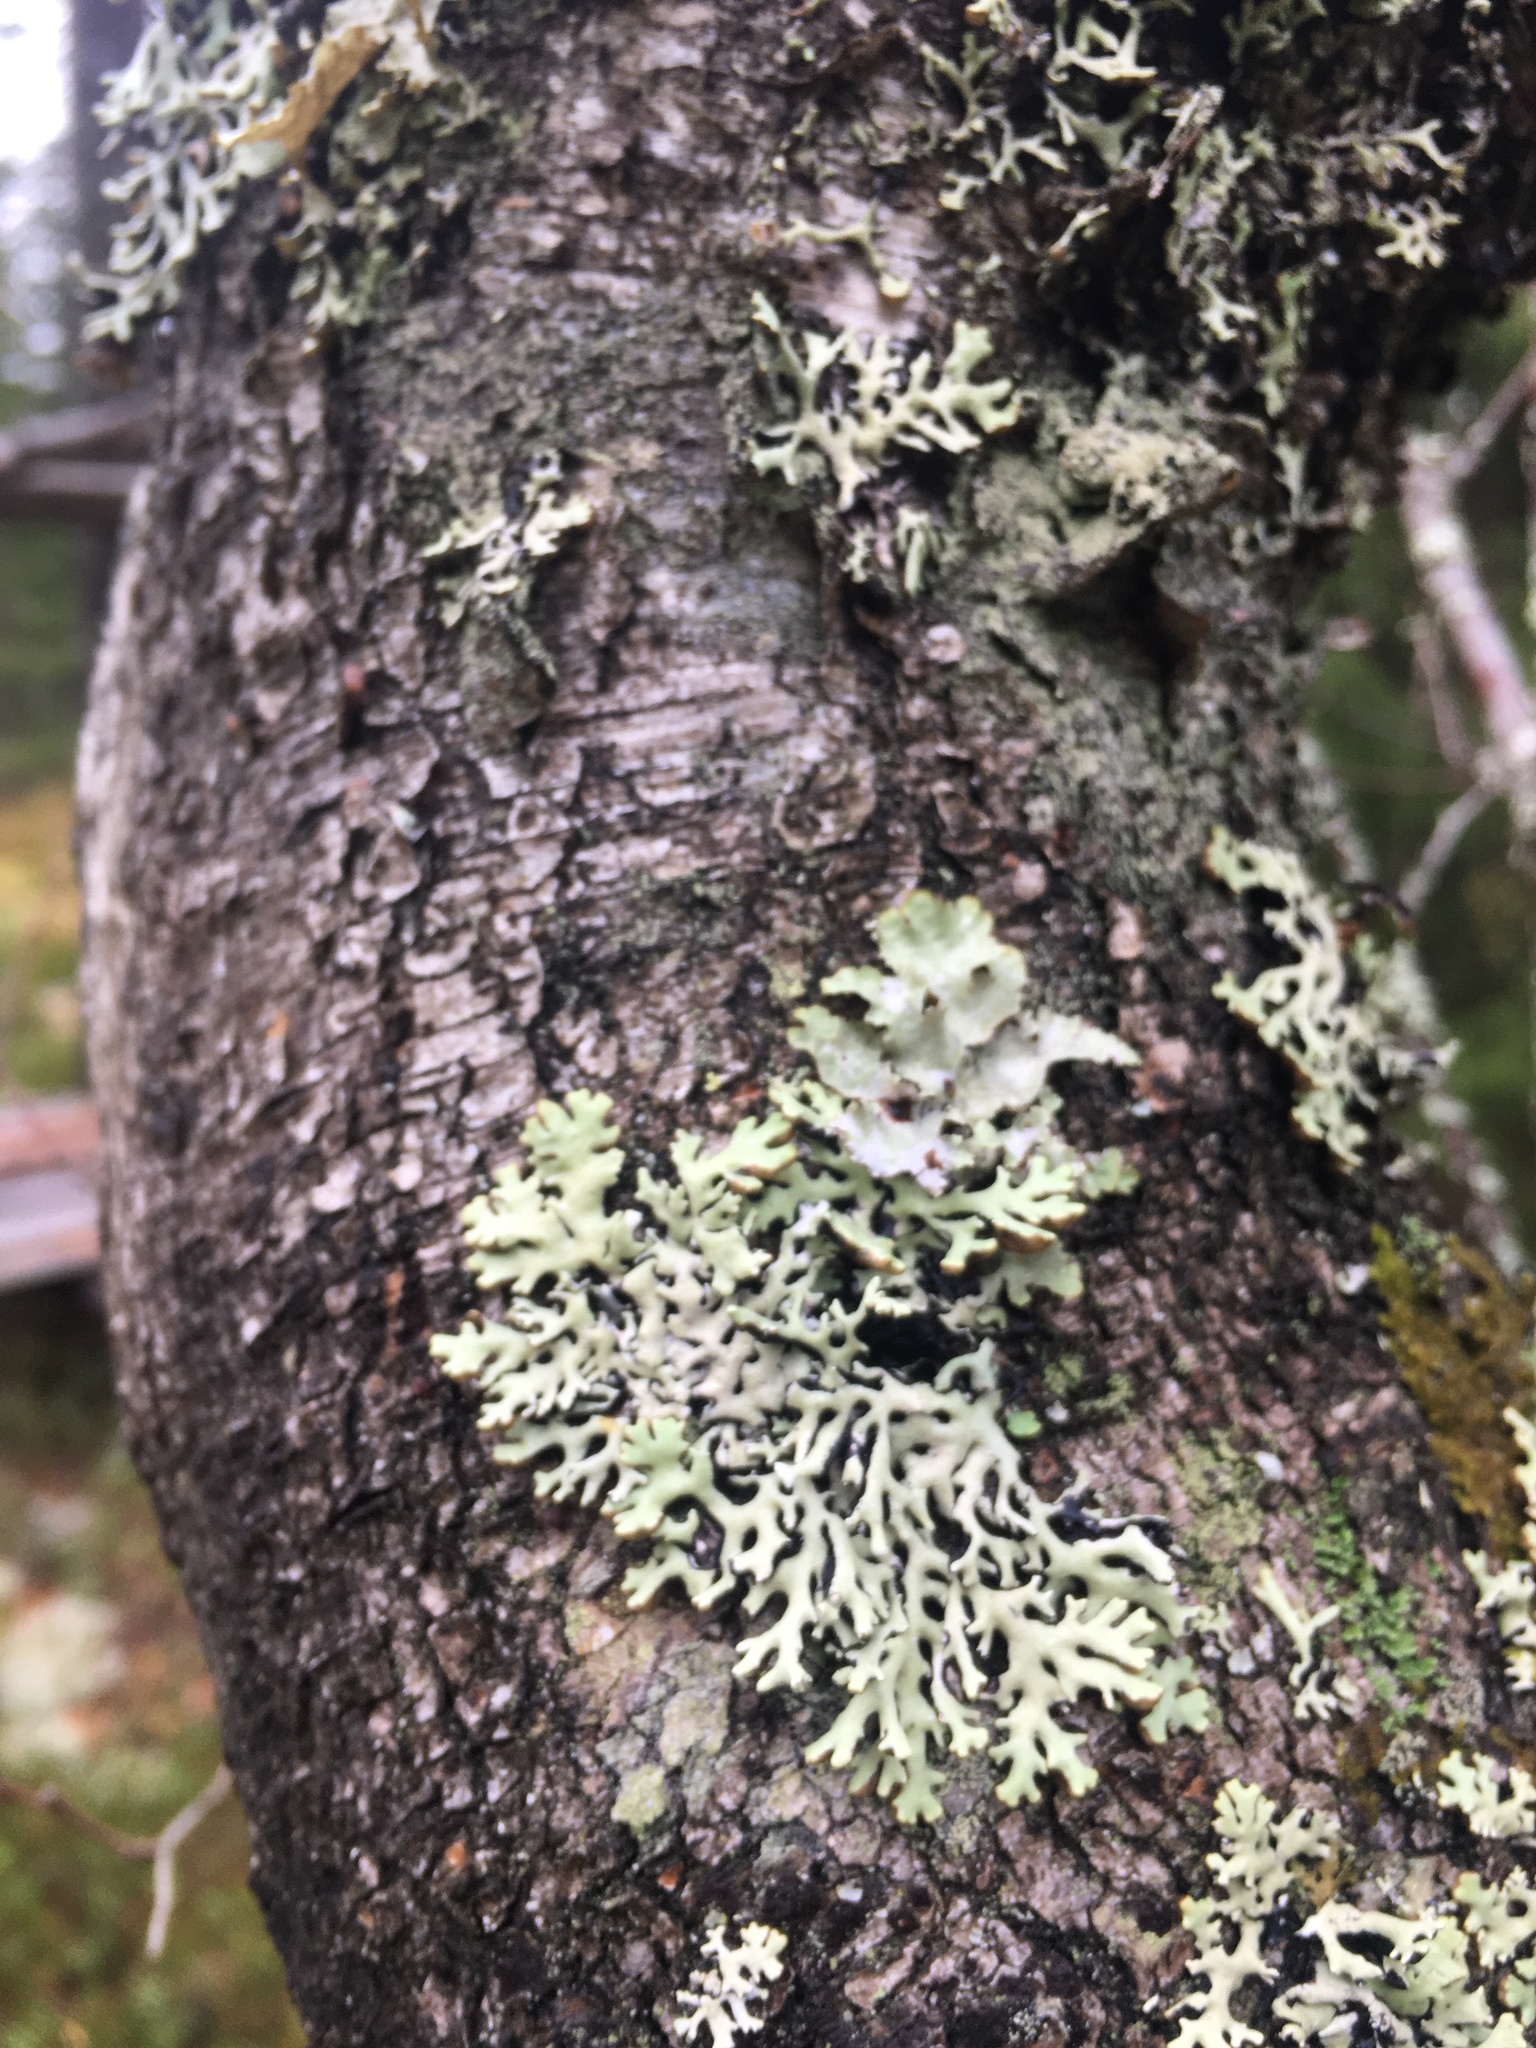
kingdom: Fungi
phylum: Ascomycota
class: Lecanoromycetes
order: Lecanorales
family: Parmeliaceae
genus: Hypogymnia
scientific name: Hypogymnia physodes
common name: Dark crottle
